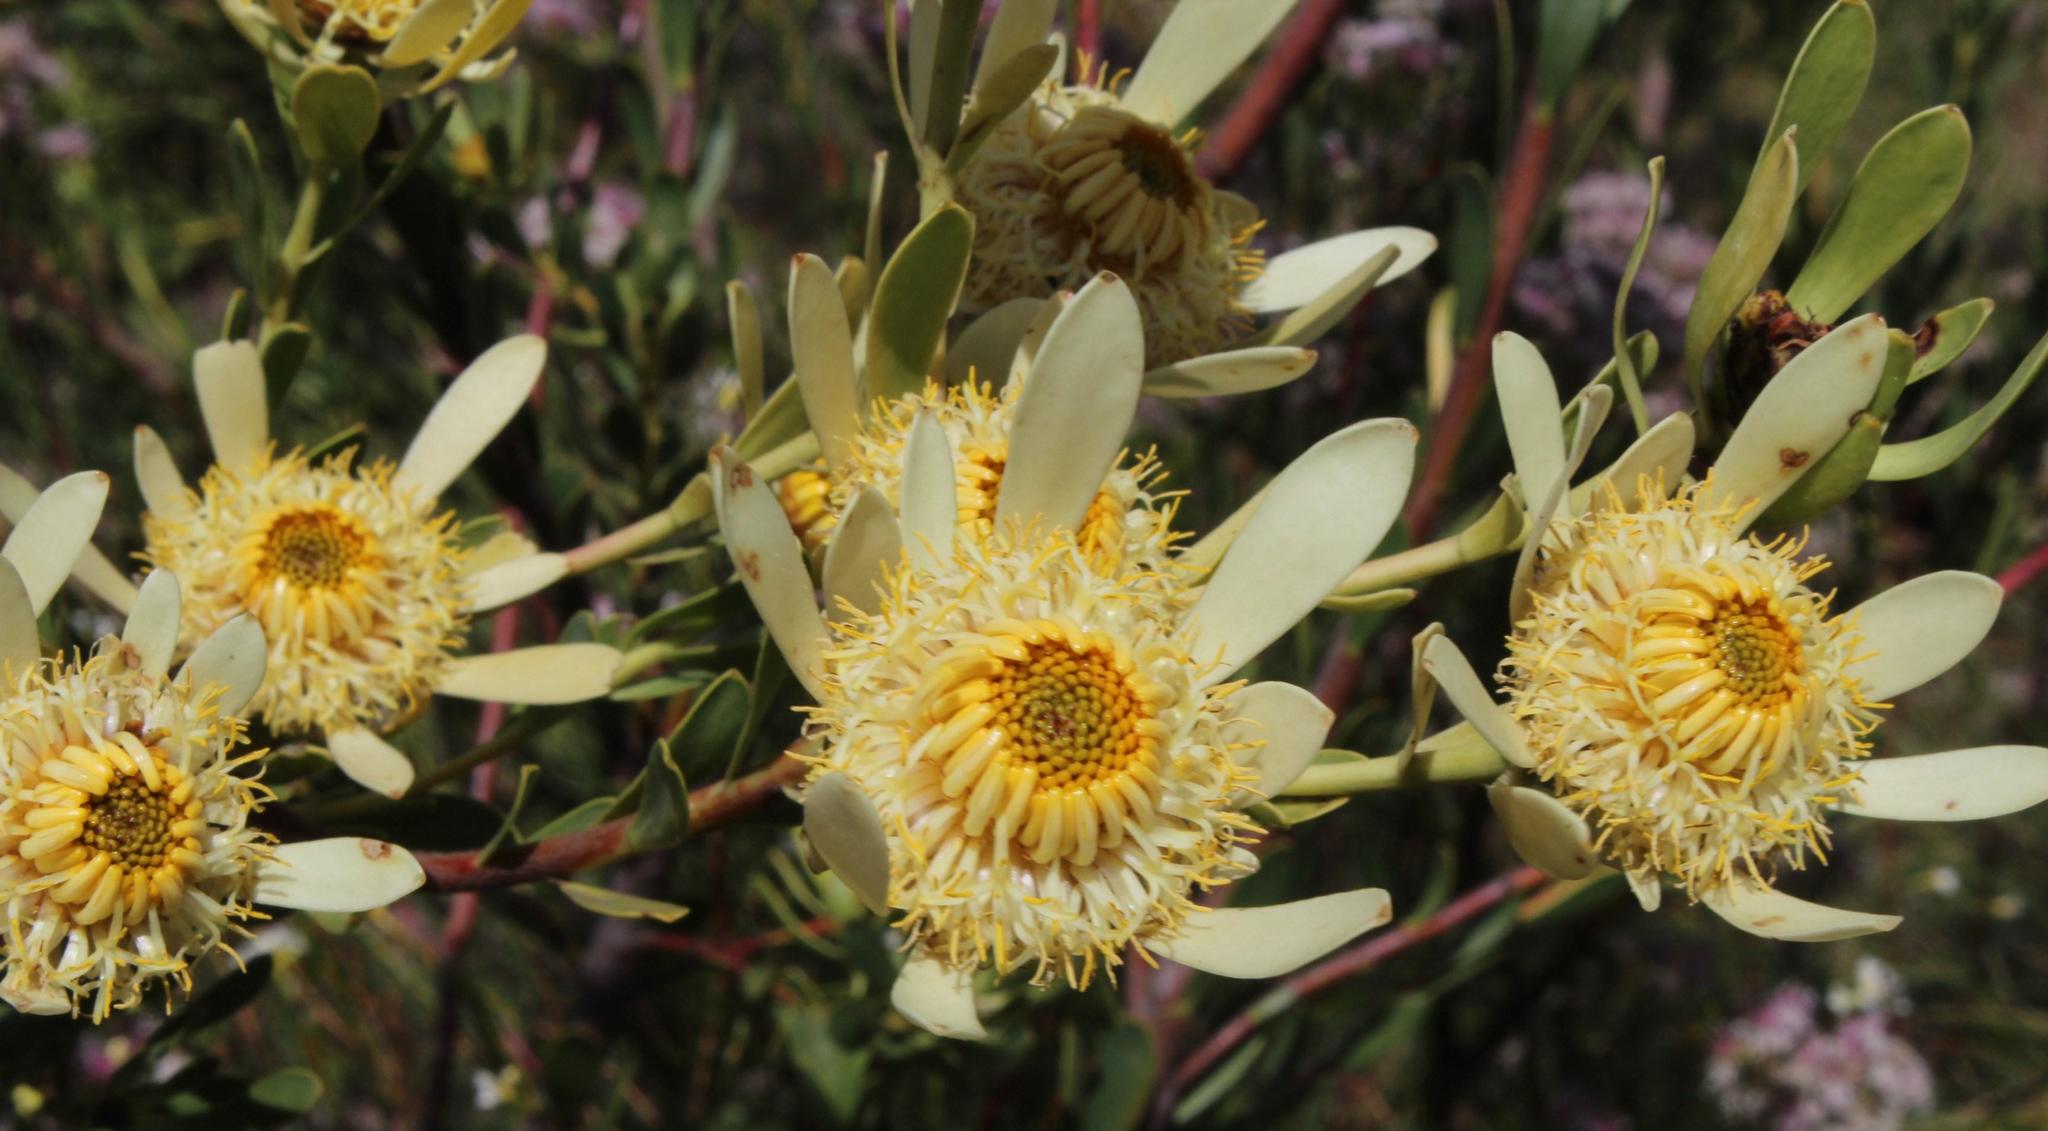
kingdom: Plantae
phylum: Tracheophyta
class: Magnoliopsida
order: Proteales
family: Proteaceae
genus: Leucadendron
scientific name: Leucadendron chamelaea
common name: Witsenberg conebush
